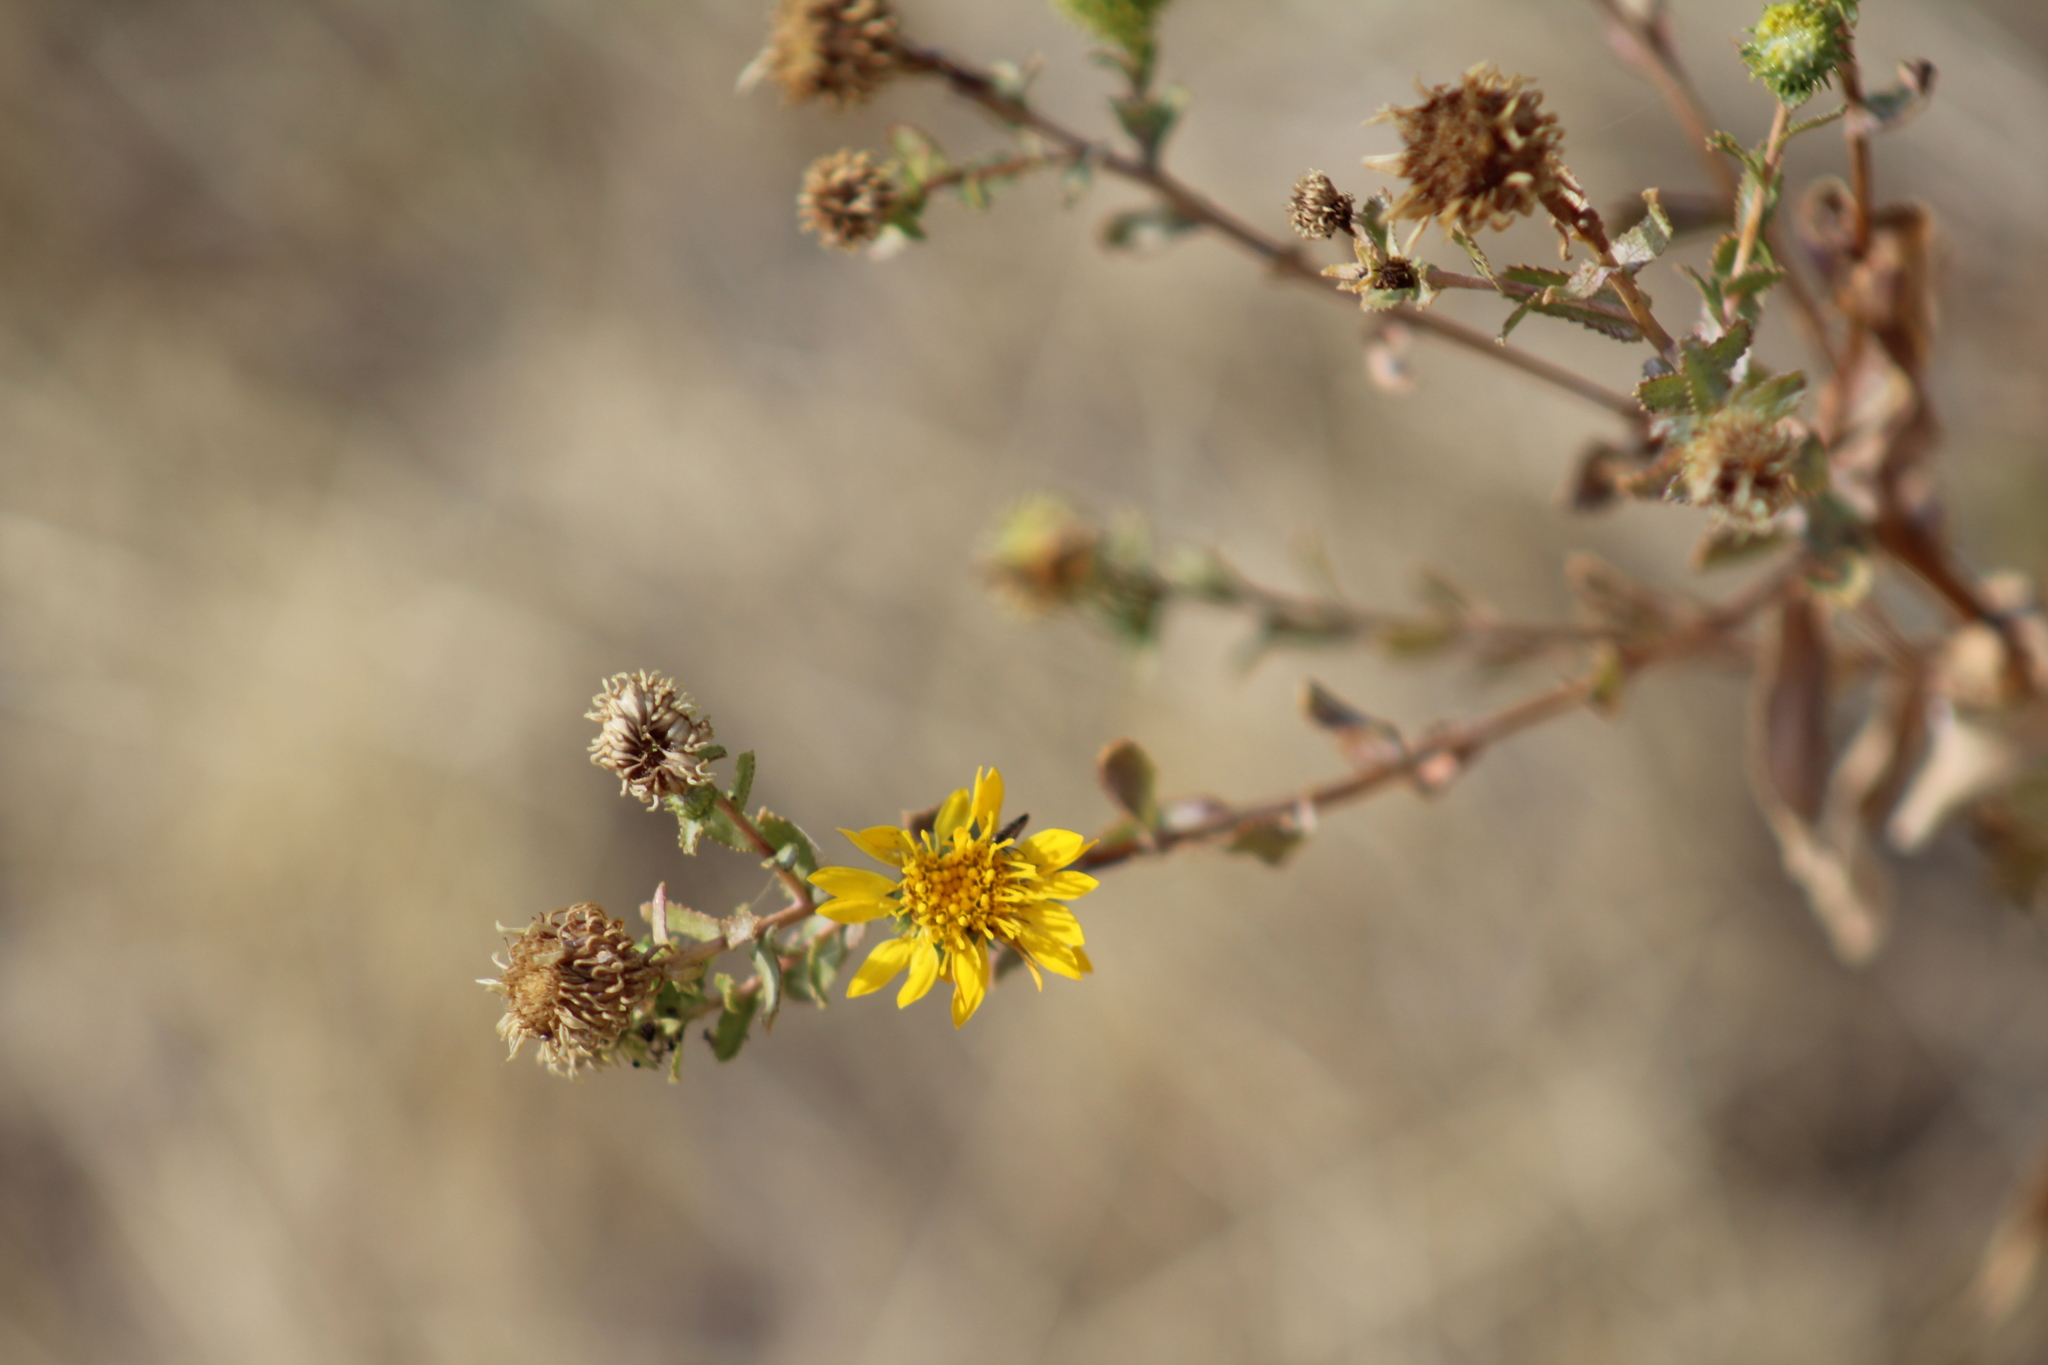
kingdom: Plantae
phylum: Tracheophyta
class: Magnoliopsida
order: Asterales
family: Asteraceae
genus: Grindelia
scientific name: Grindelia squarrosa
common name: Curly-cup gumweed
